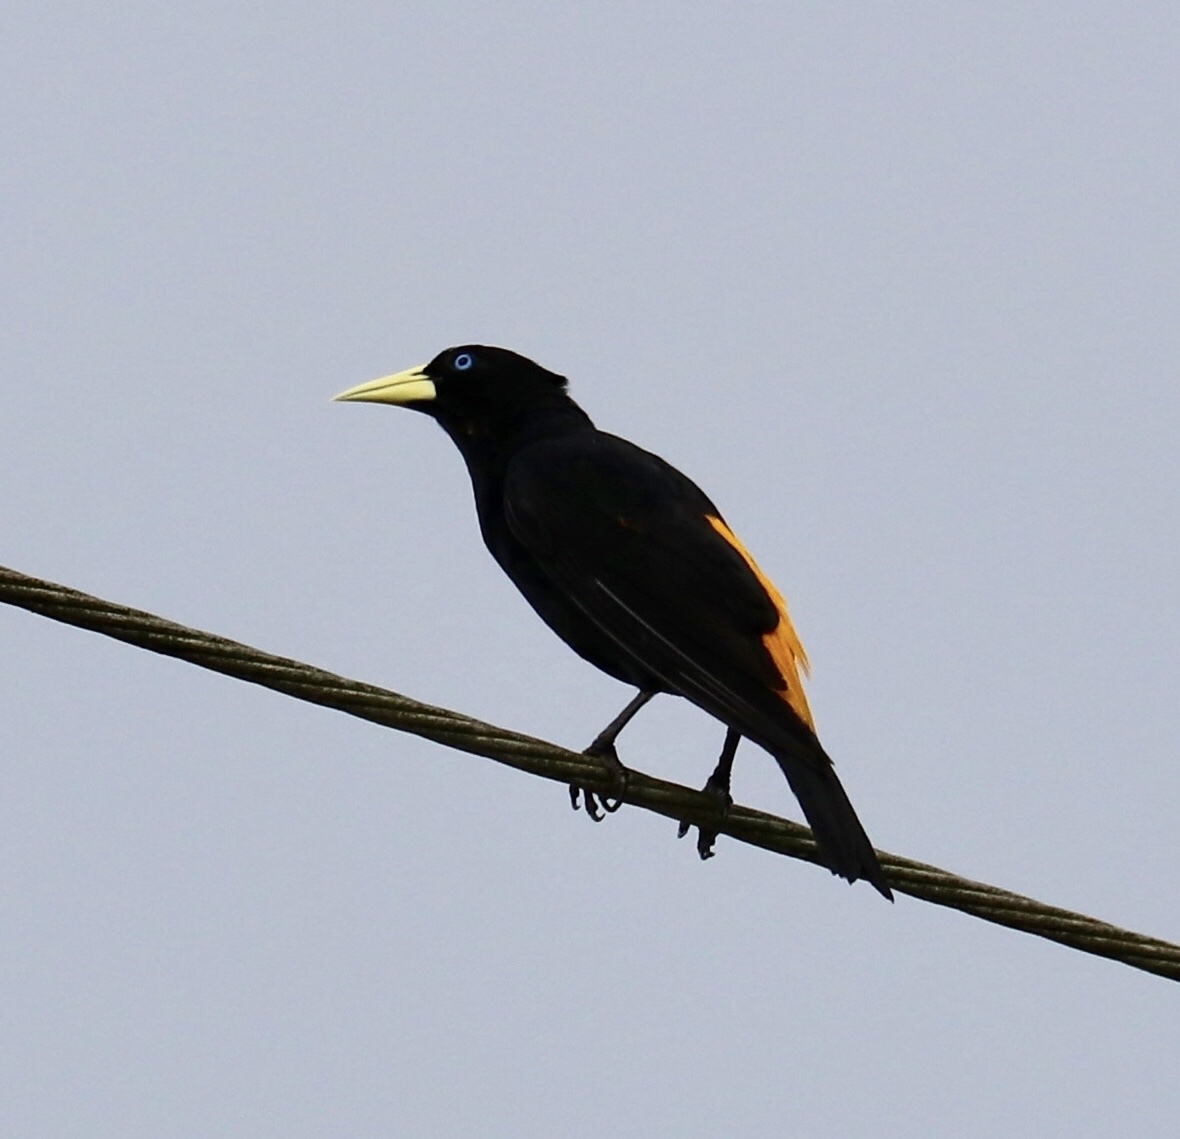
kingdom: Animalia
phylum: Chordata
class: Aves
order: Passeriformes
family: Icteridae
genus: Cacicus
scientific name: Cacicus cela
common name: Yellow-rumped cacique
